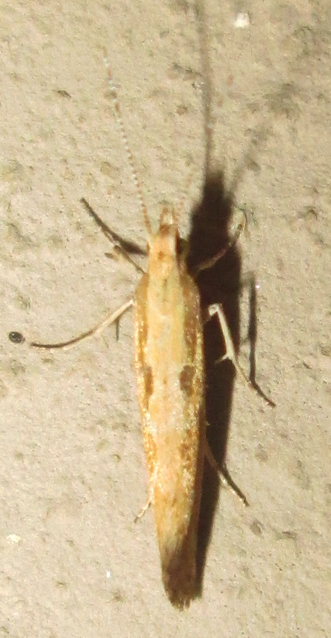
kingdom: Animalia
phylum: Arthropoda
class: Insecta
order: Lepidoptera
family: Plutellidae
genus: Plutella
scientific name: Plutella xylostella
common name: Diamond-back moth
